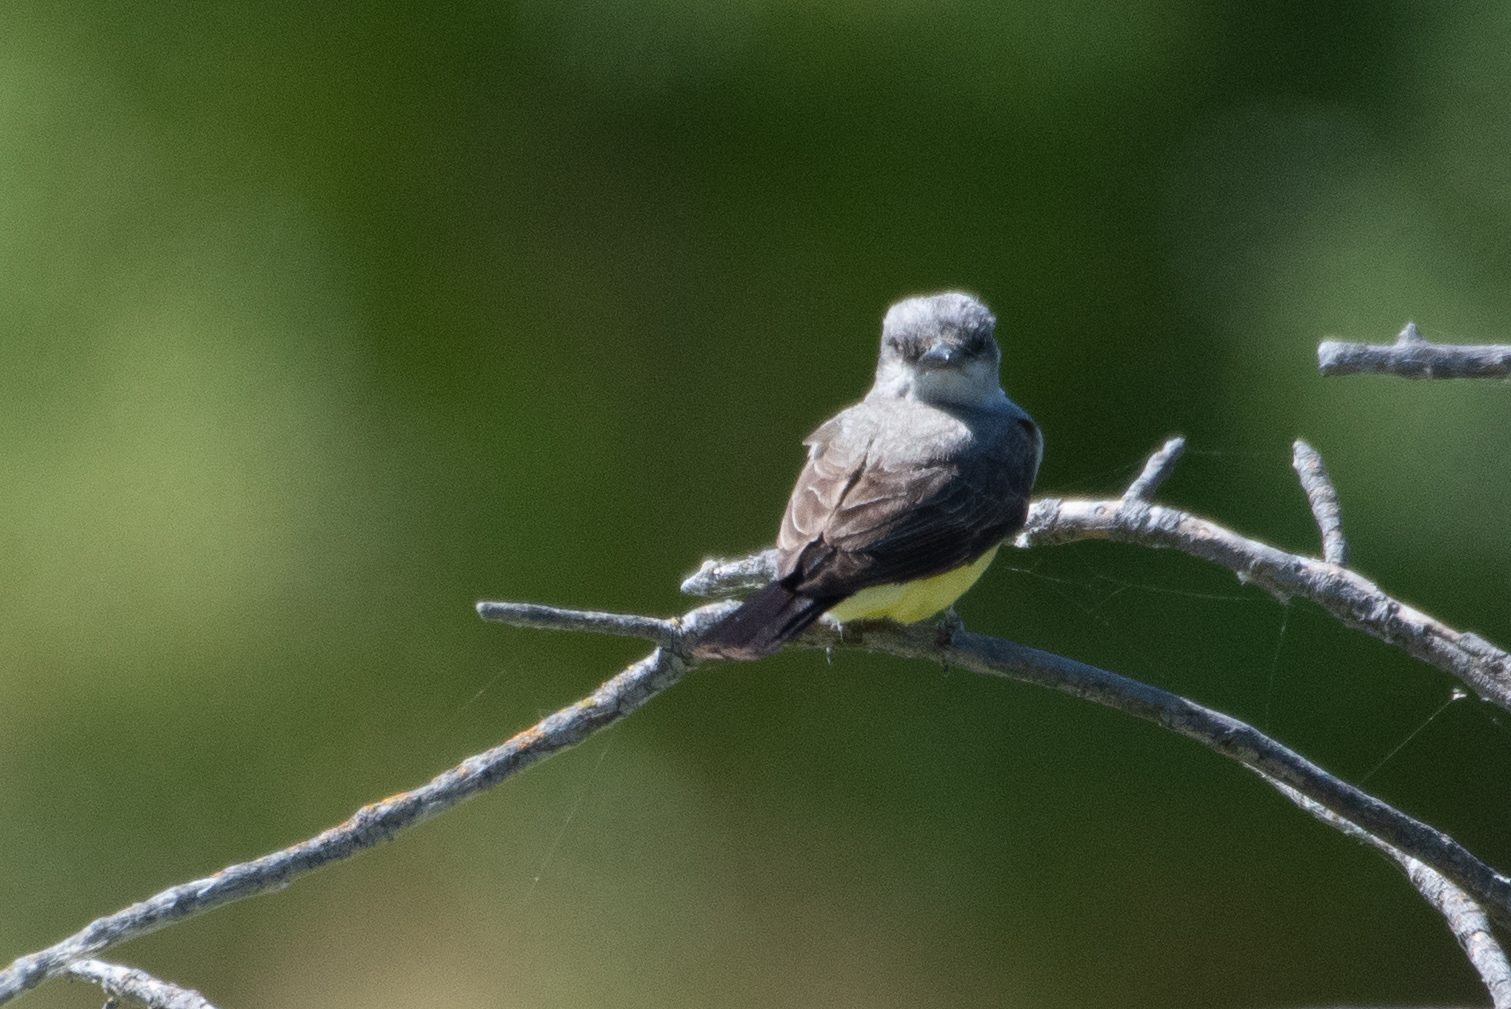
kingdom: Animalia
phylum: Chordata
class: Aves
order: Passeriformes
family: Tyrannidae
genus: Tyrannus
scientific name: Tyrannus verticalis
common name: Western kingbird
